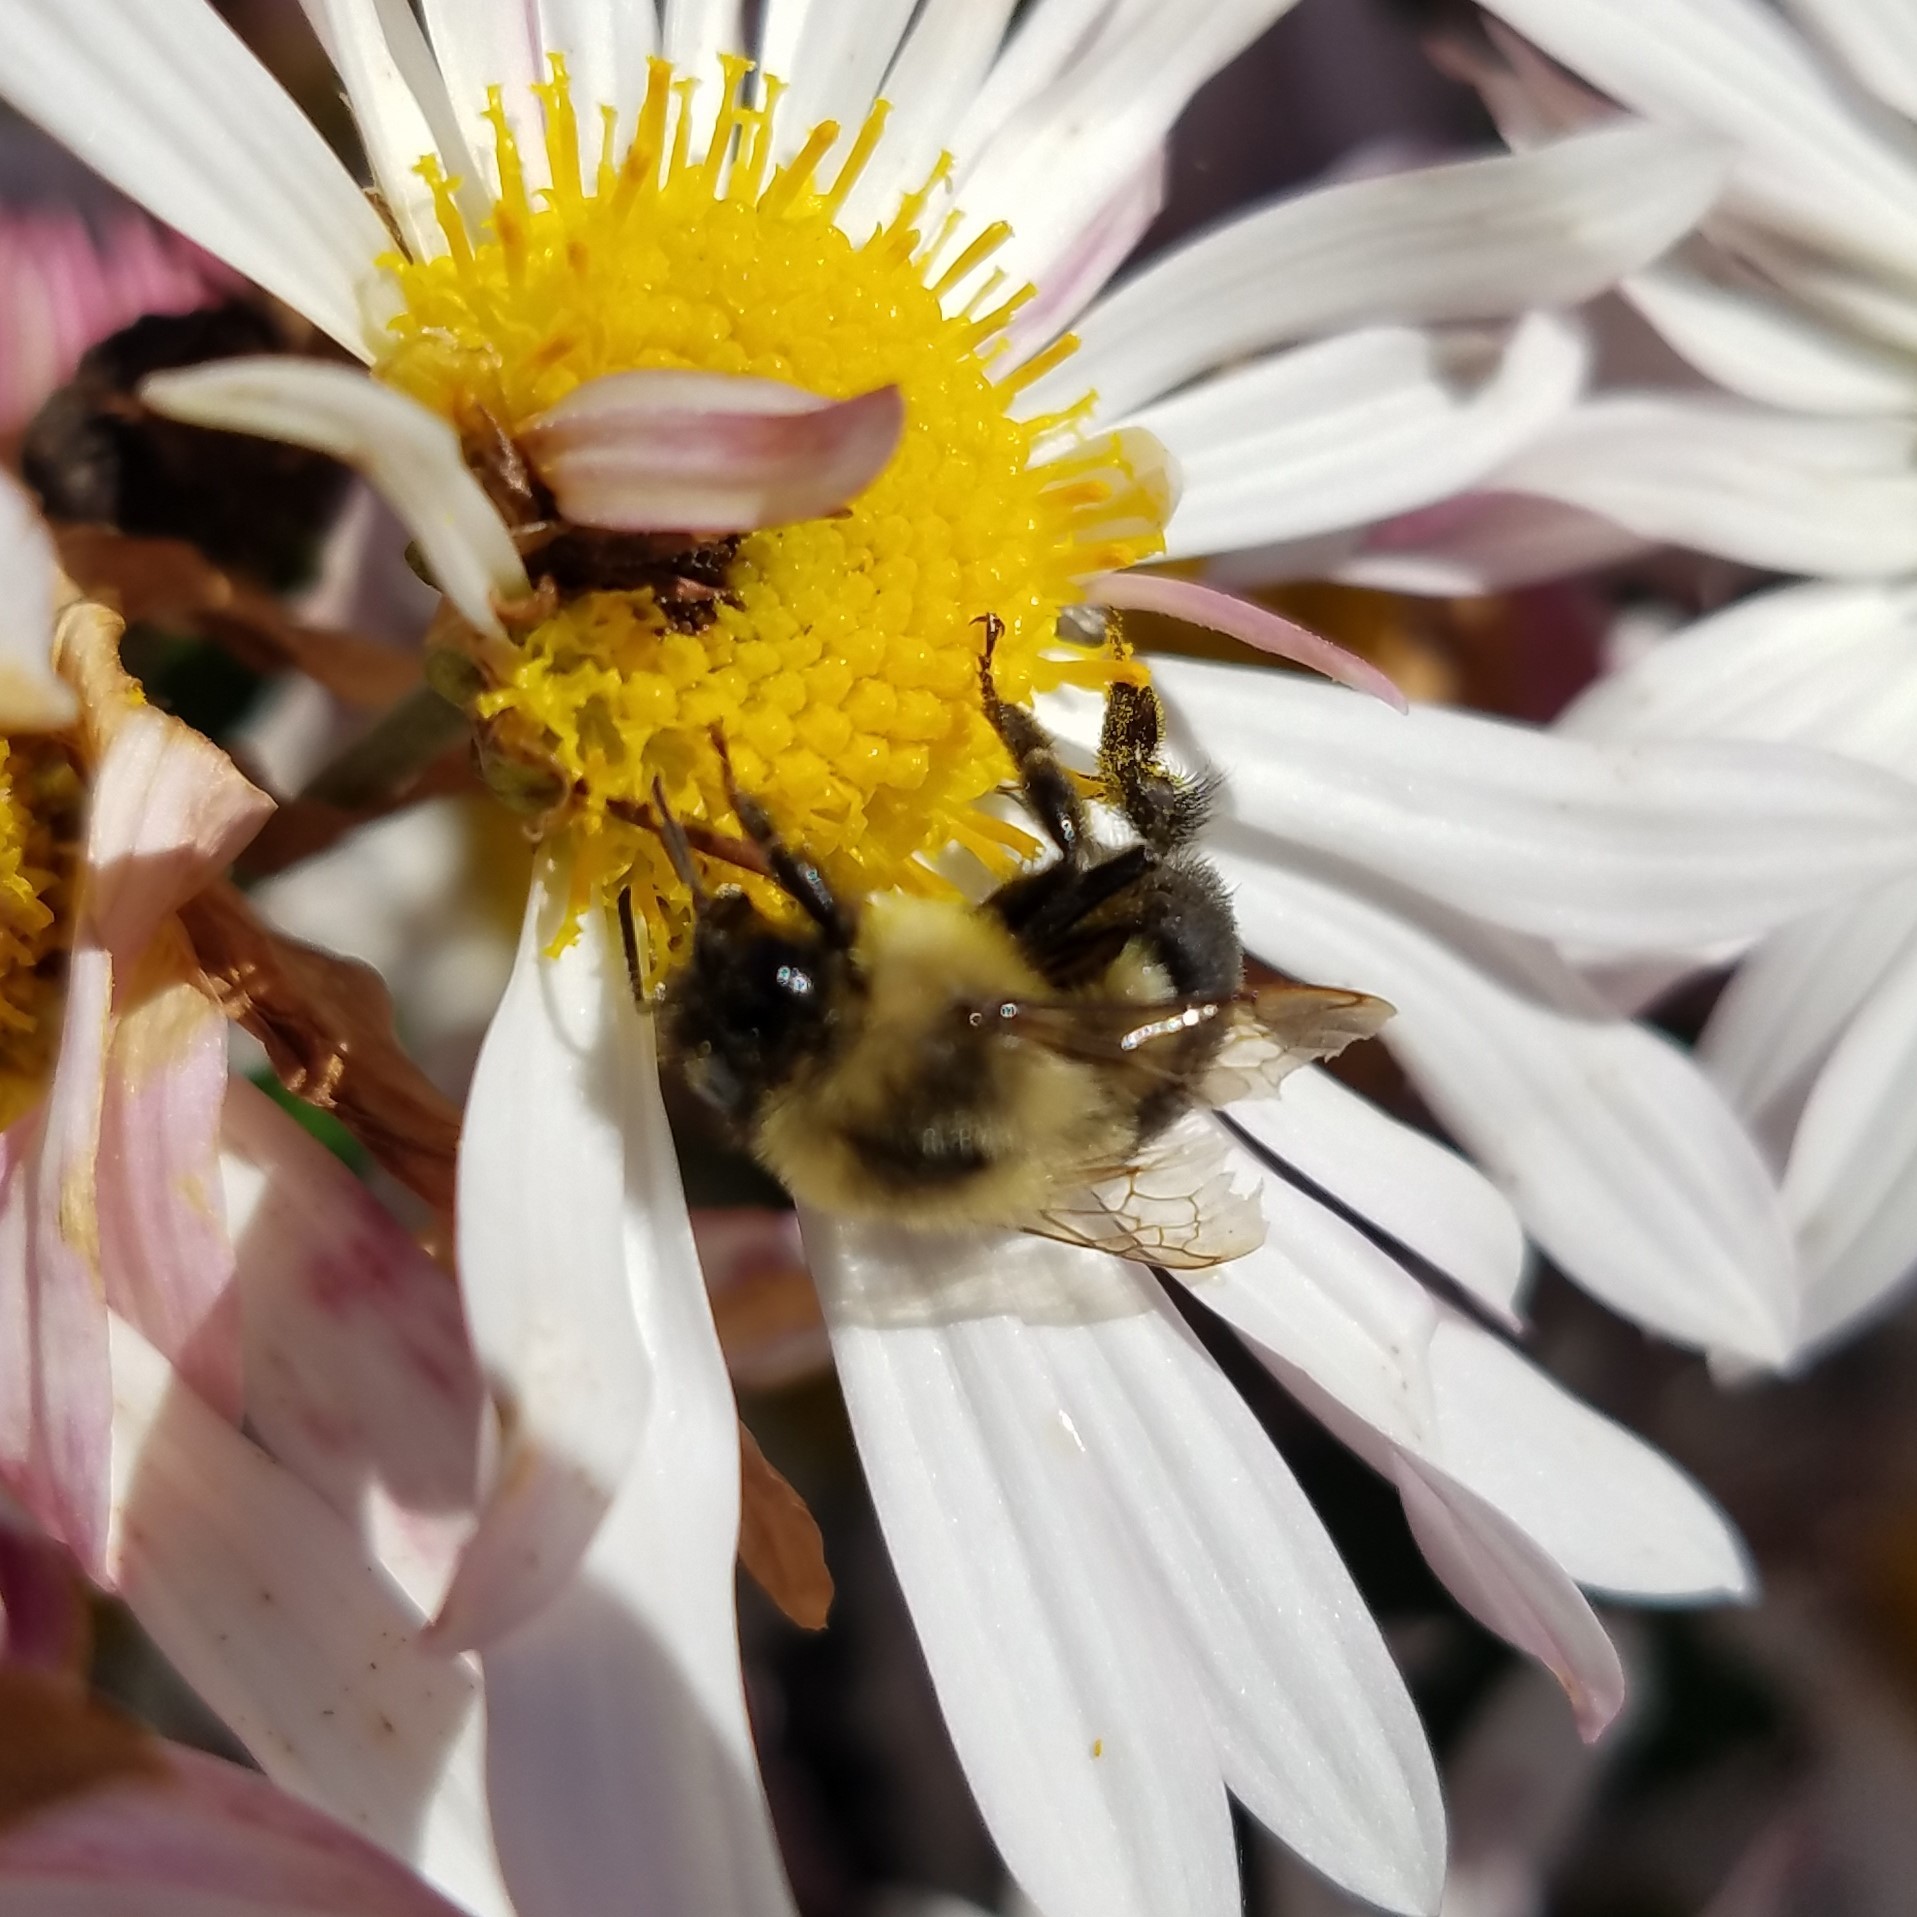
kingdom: Animalia
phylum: Arthropoda
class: Insecta
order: Hymenoptera
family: Apidae
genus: Bombus
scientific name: Bombus impatiens
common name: Common eastern bumble bee
